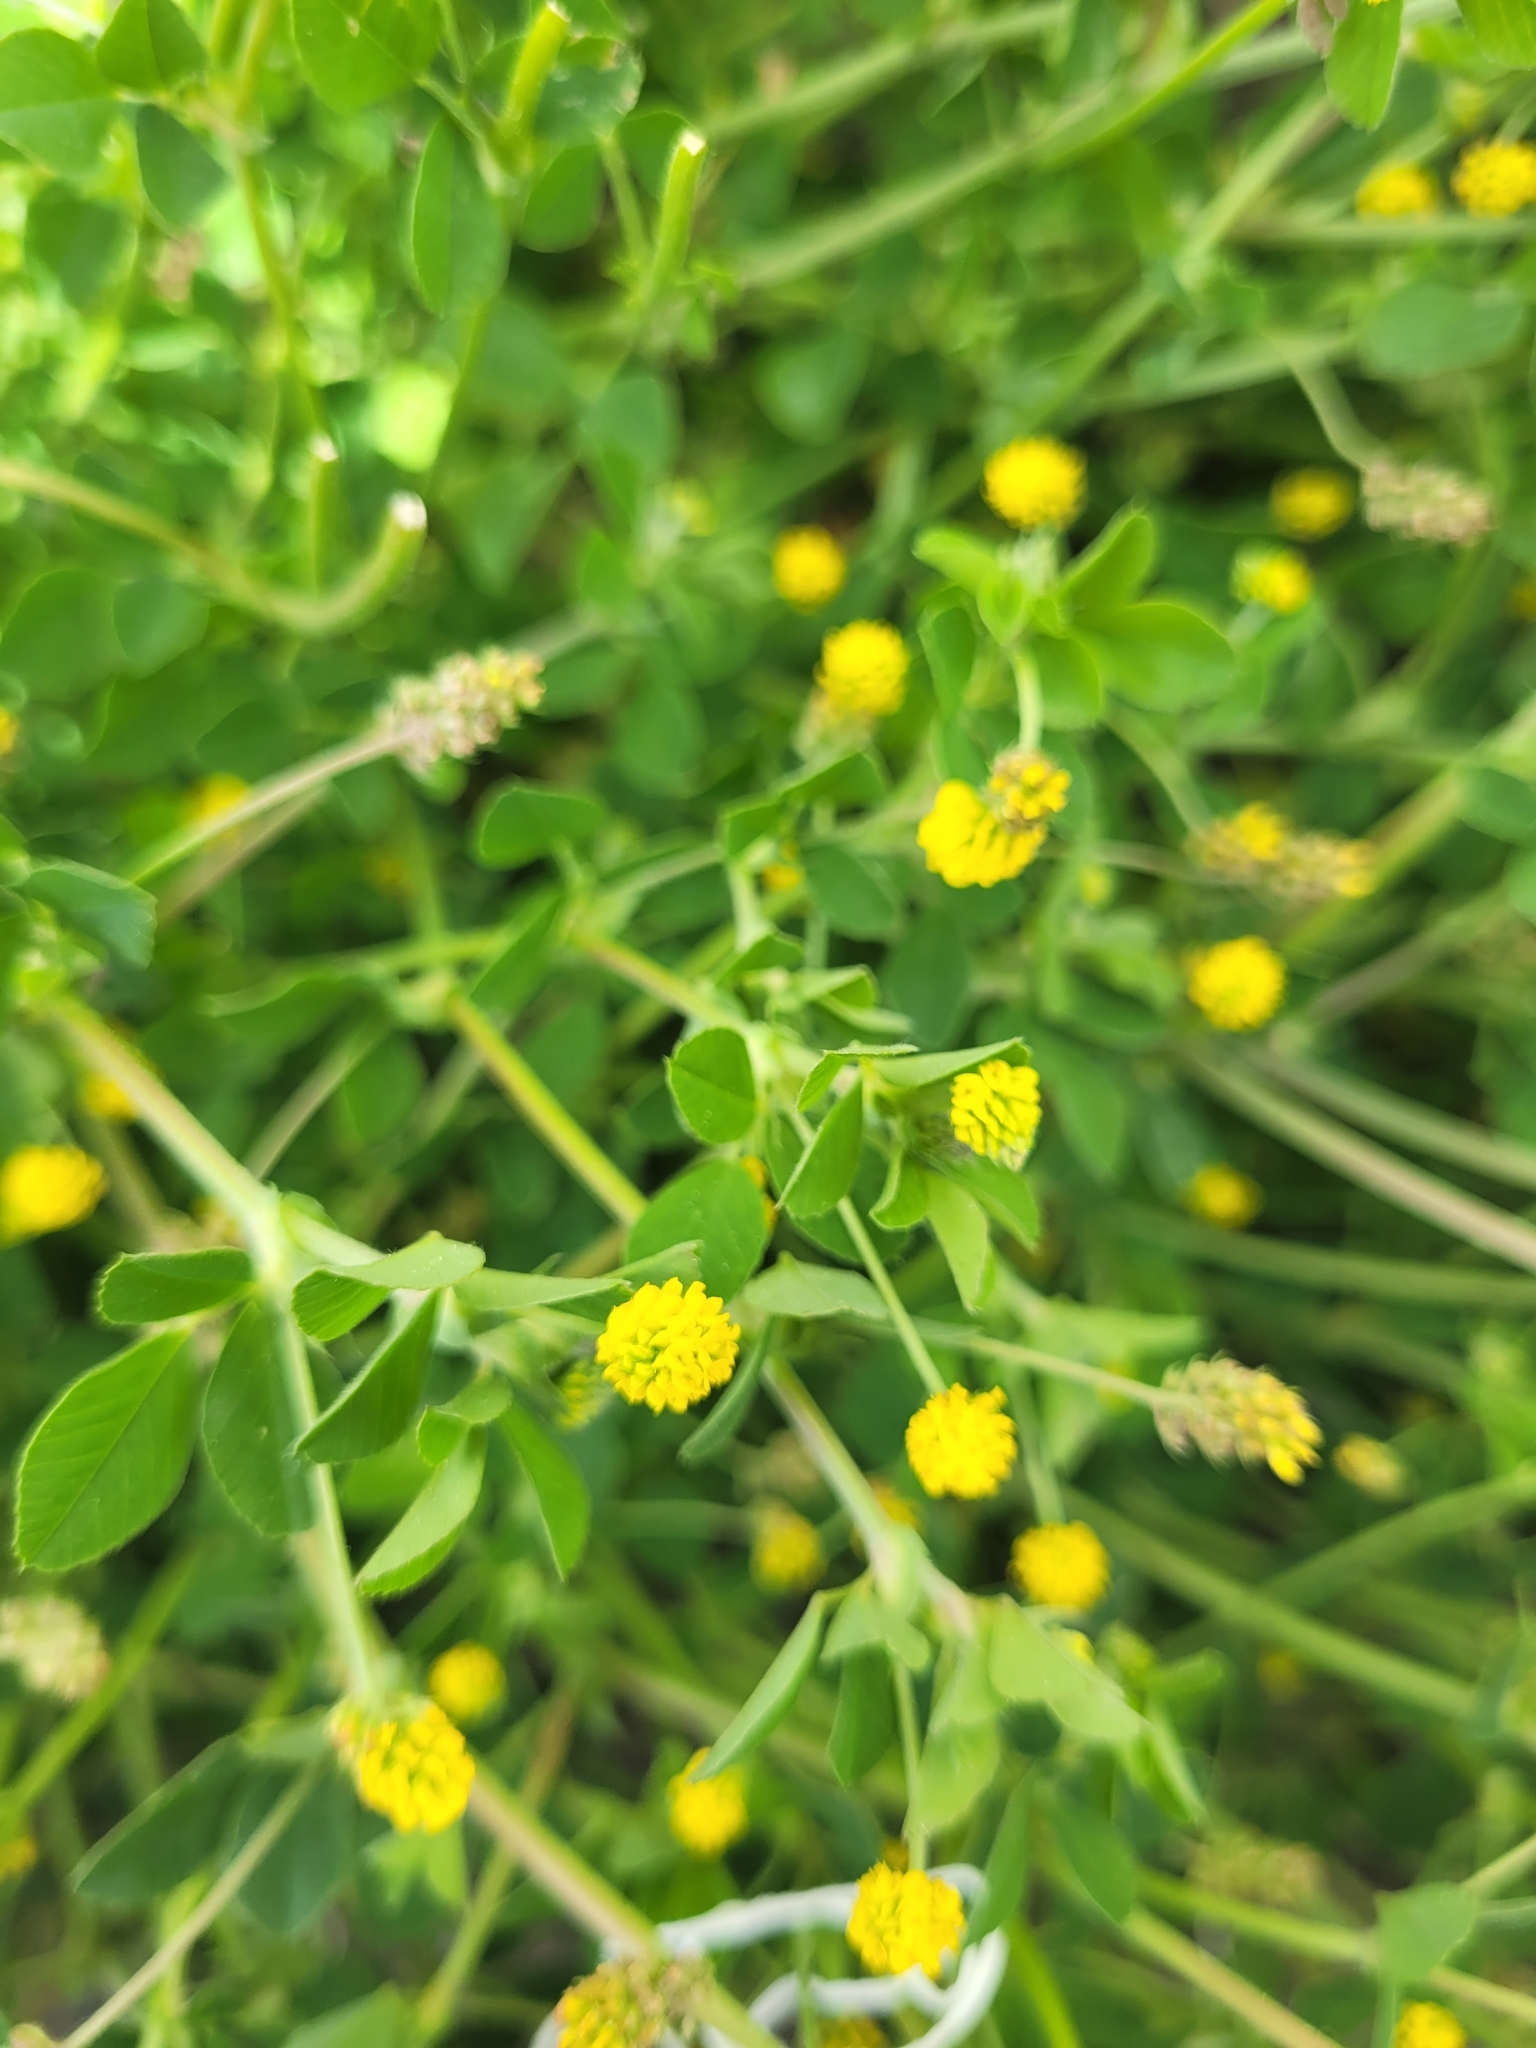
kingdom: Plantae
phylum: Tracheophyta
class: Magnoliopsida
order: Fabales
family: Fabaceae
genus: Medicago
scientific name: Medicago lupulina
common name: Black medick
